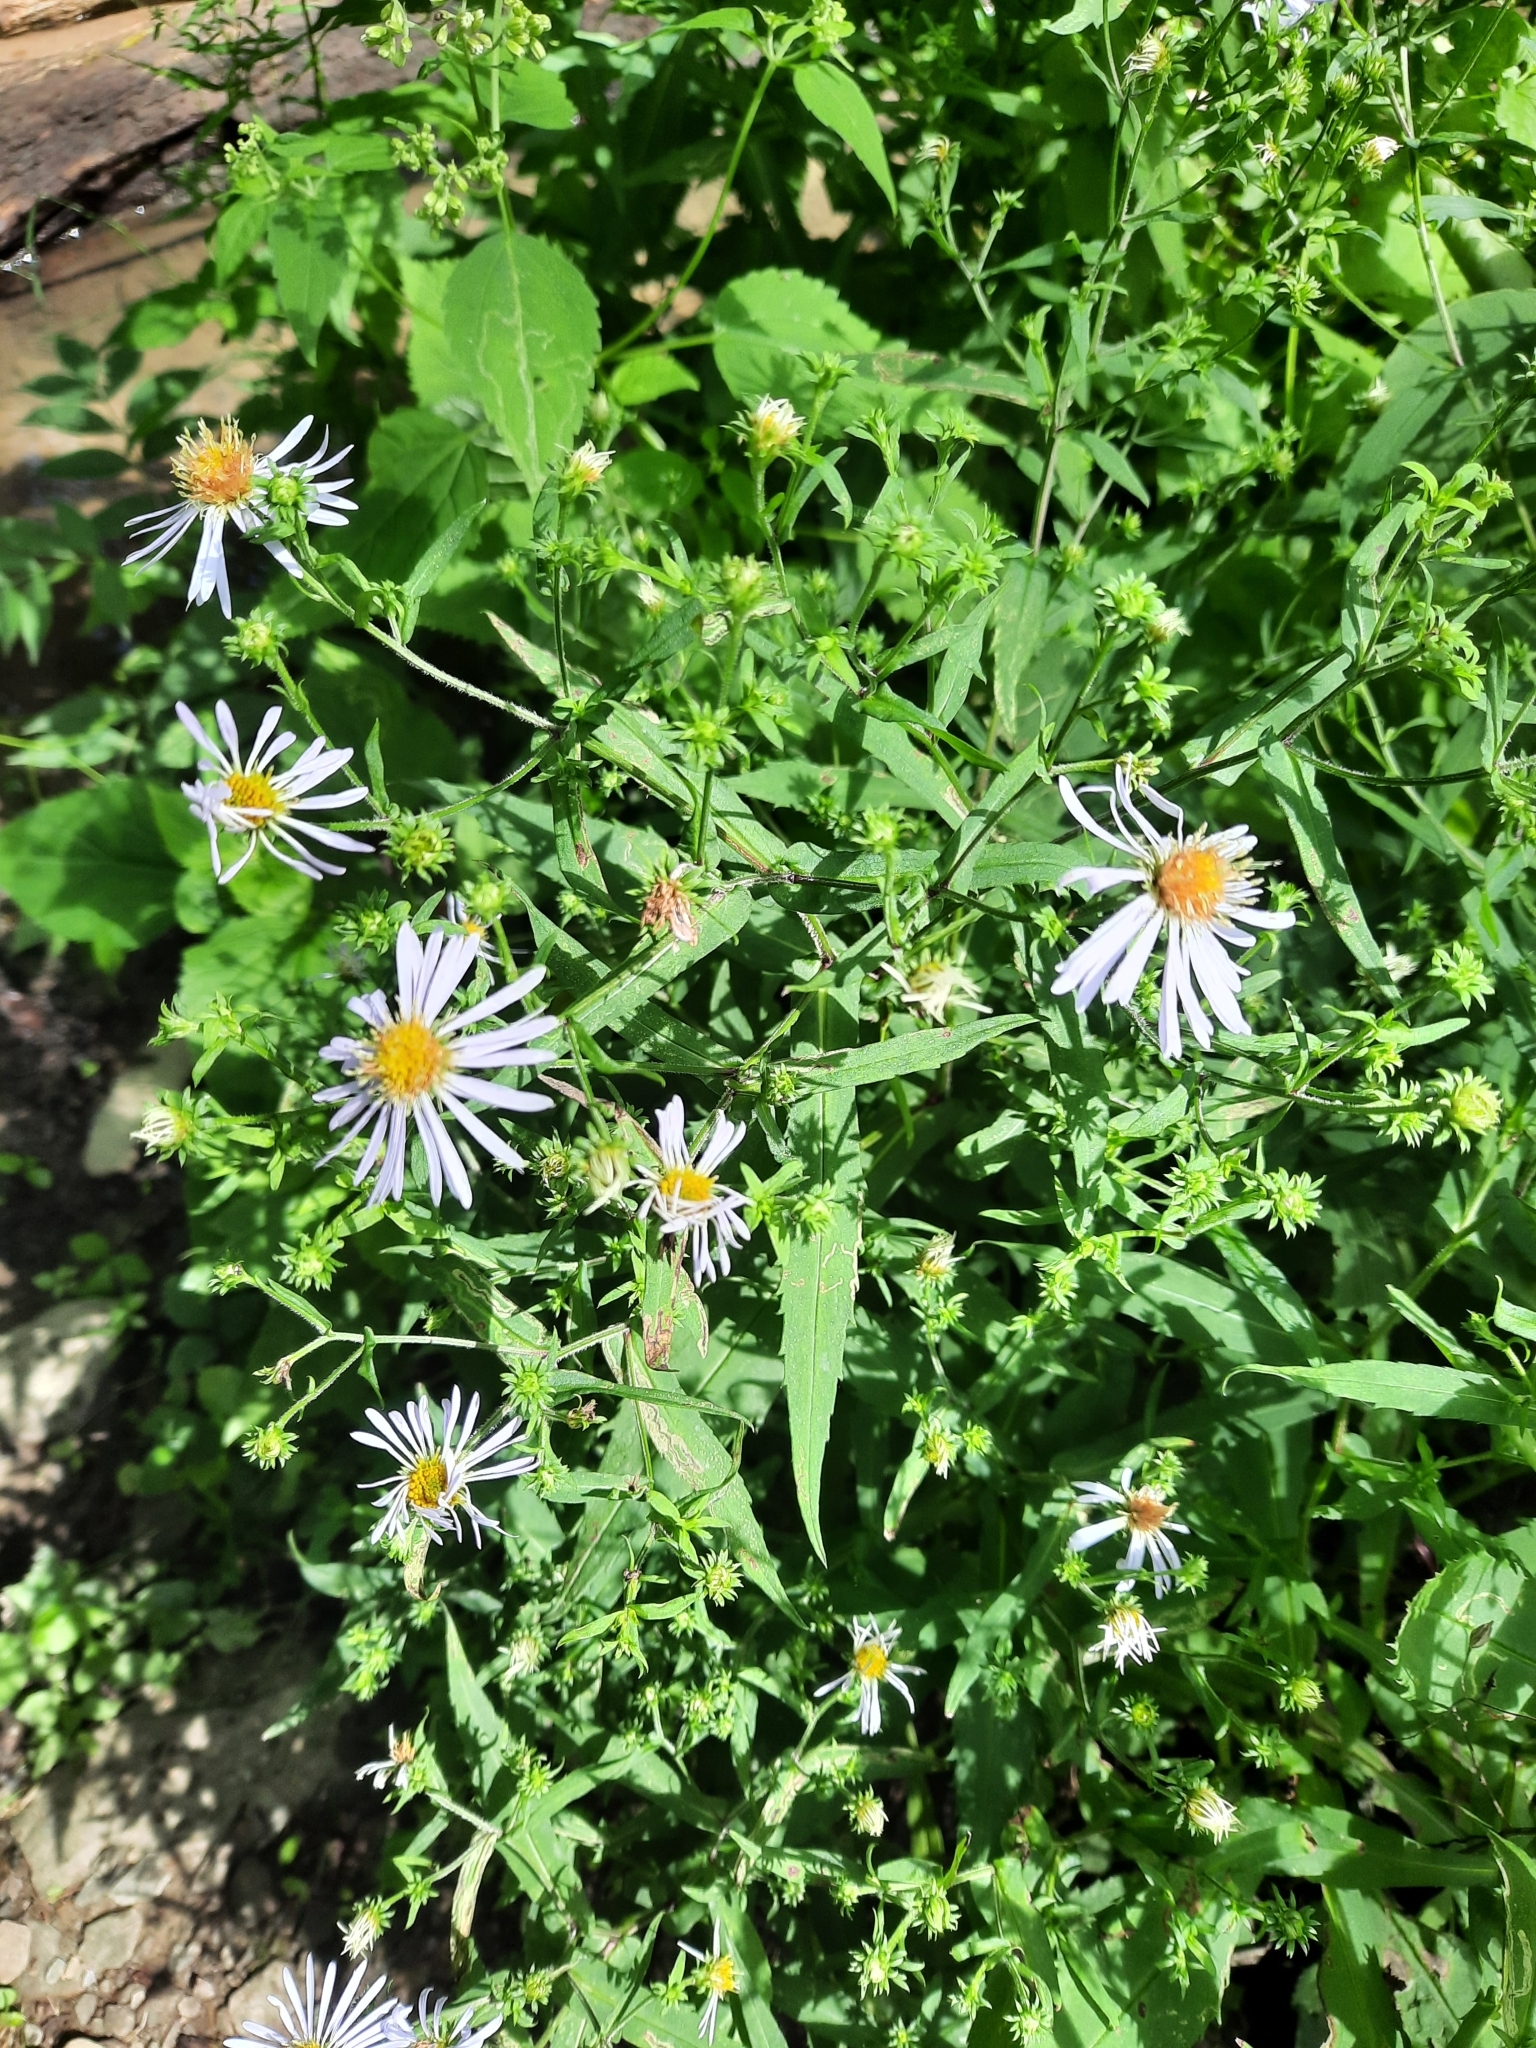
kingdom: Plantae
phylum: Tracheophyta
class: Magnoliopsida
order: Asterales
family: Asteraceae
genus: Symphyotrichum
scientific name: Symphyotrichum prenanthoides
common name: Crooked-stem aster
